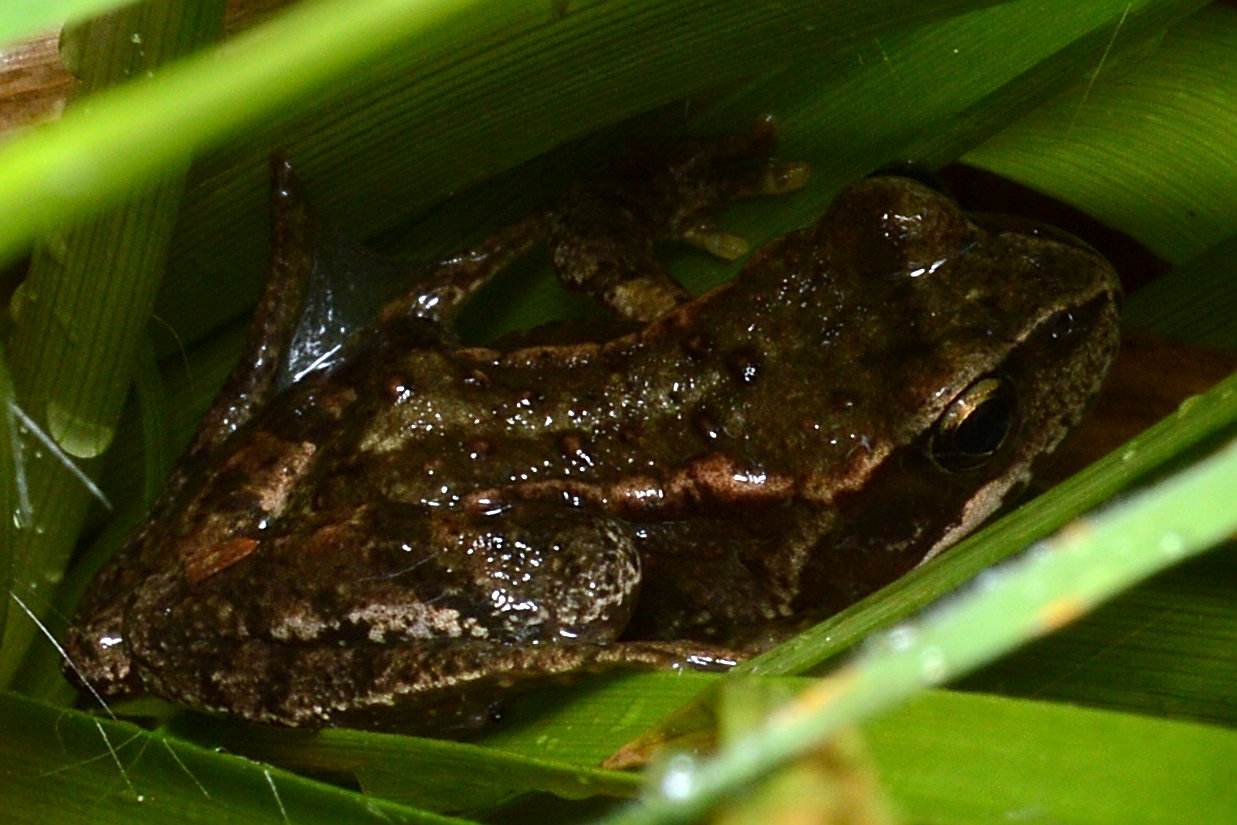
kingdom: Animalia
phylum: Chordata
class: Amphibia
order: Anura
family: Ranidae
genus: Rana
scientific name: Rana temporaria
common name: Common frog
